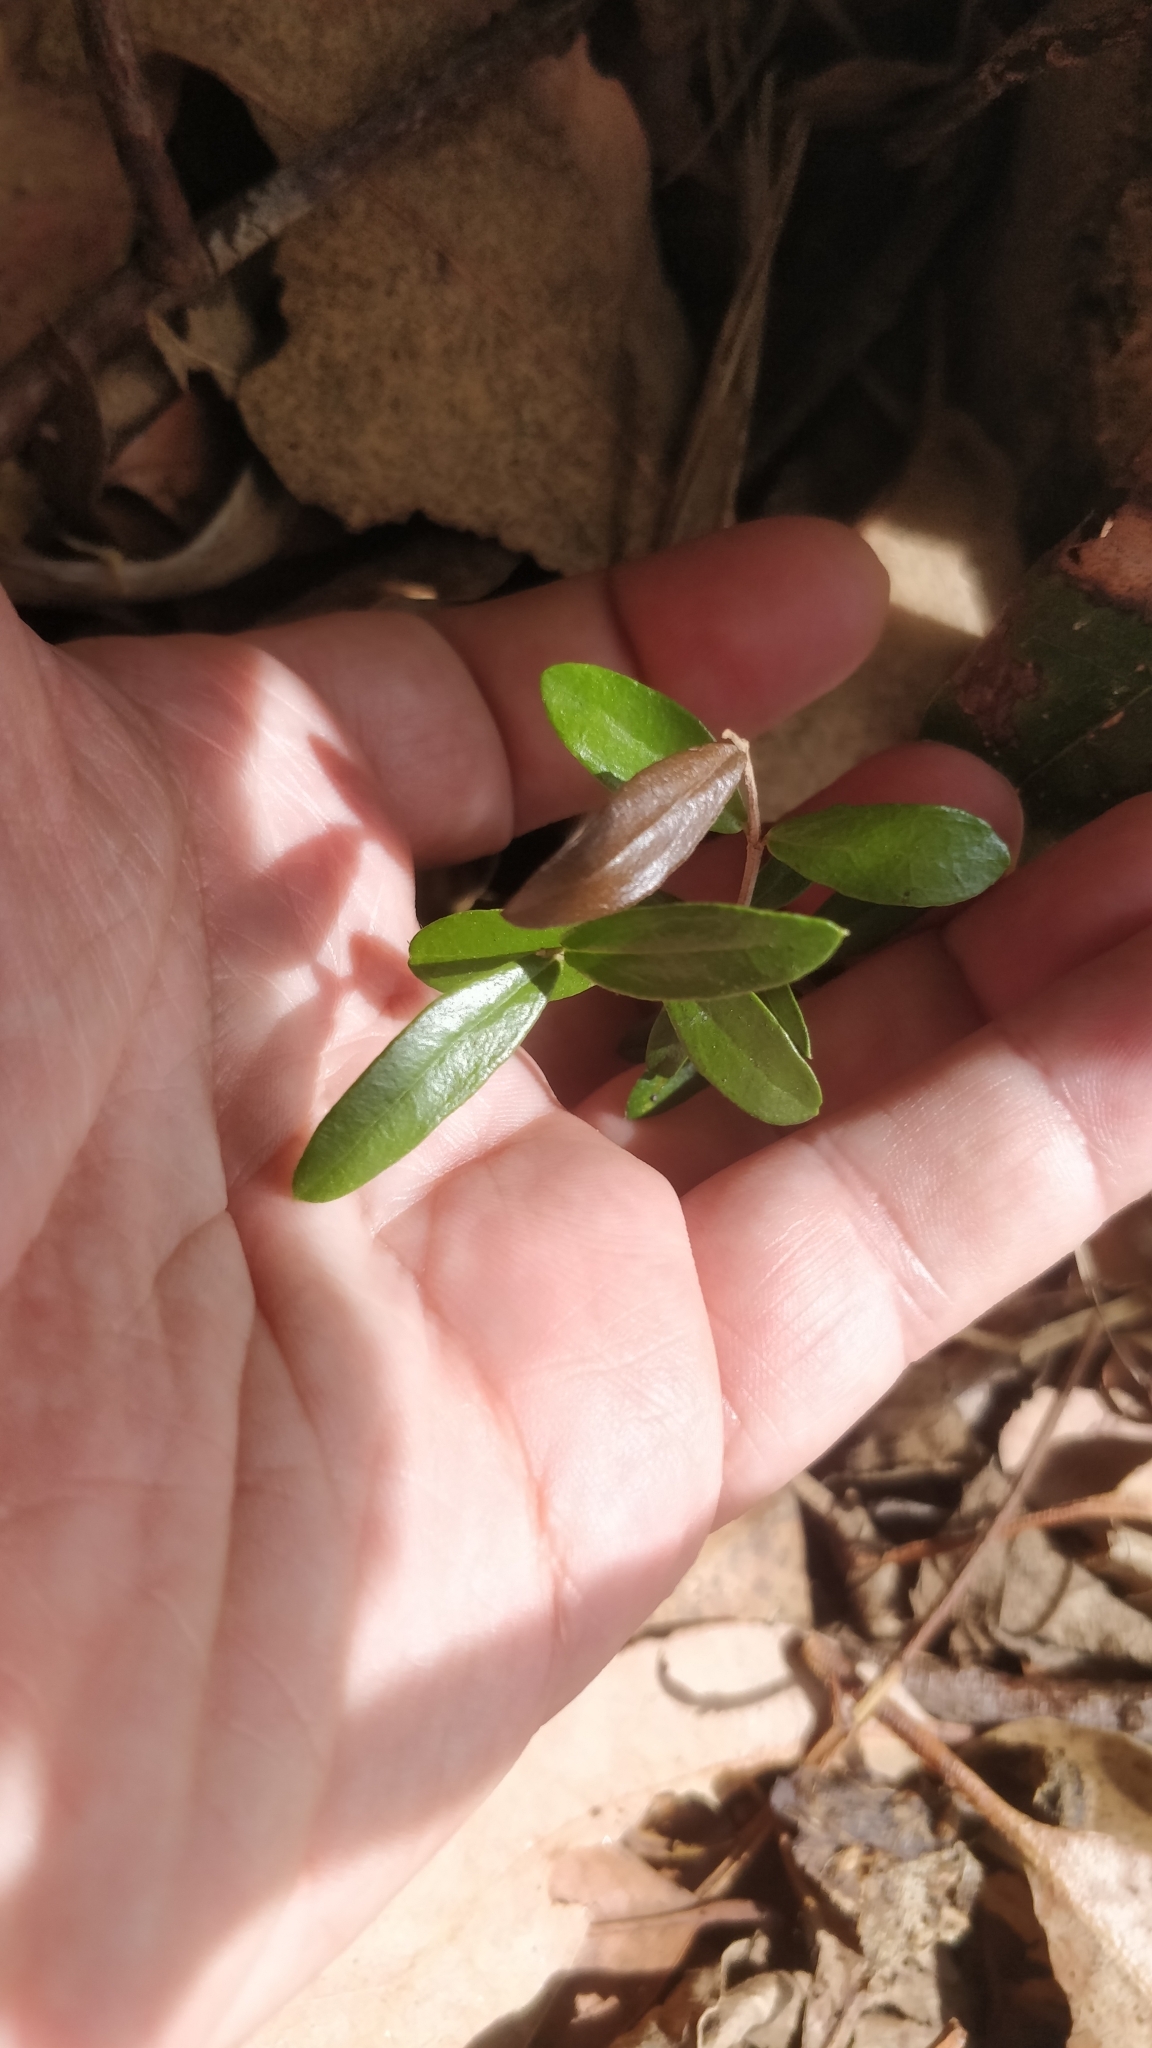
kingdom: Plantae
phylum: Tracheophyta
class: Magnoliopsida
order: Lamiales
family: Oleaceae
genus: Olea
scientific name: Olea europaea
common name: Olive
